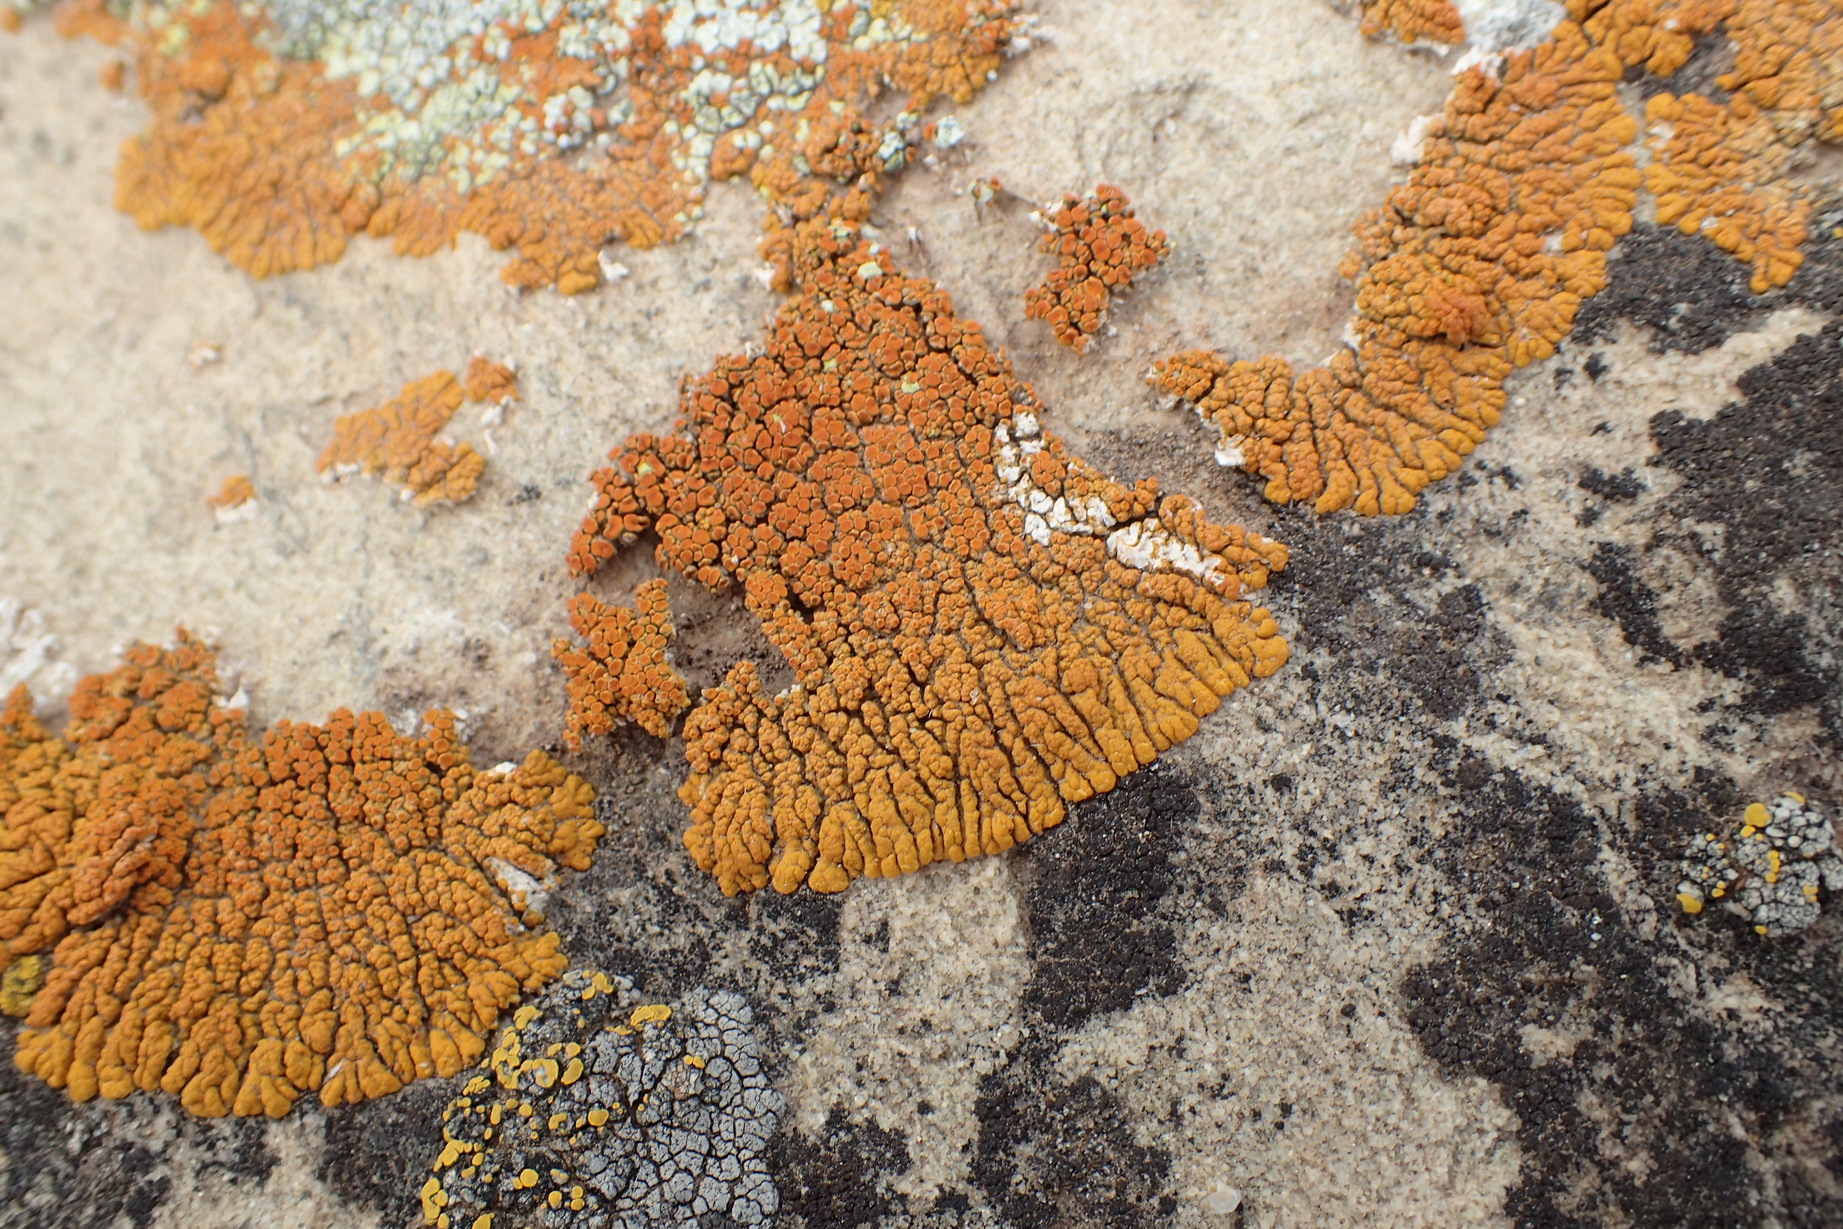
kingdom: Fungi
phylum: Ascomycota
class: Lecanoromycetes
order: Teloschistales
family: Teloschistaceae
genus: Golubkovia
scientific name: Golubkovia trachyphylla
